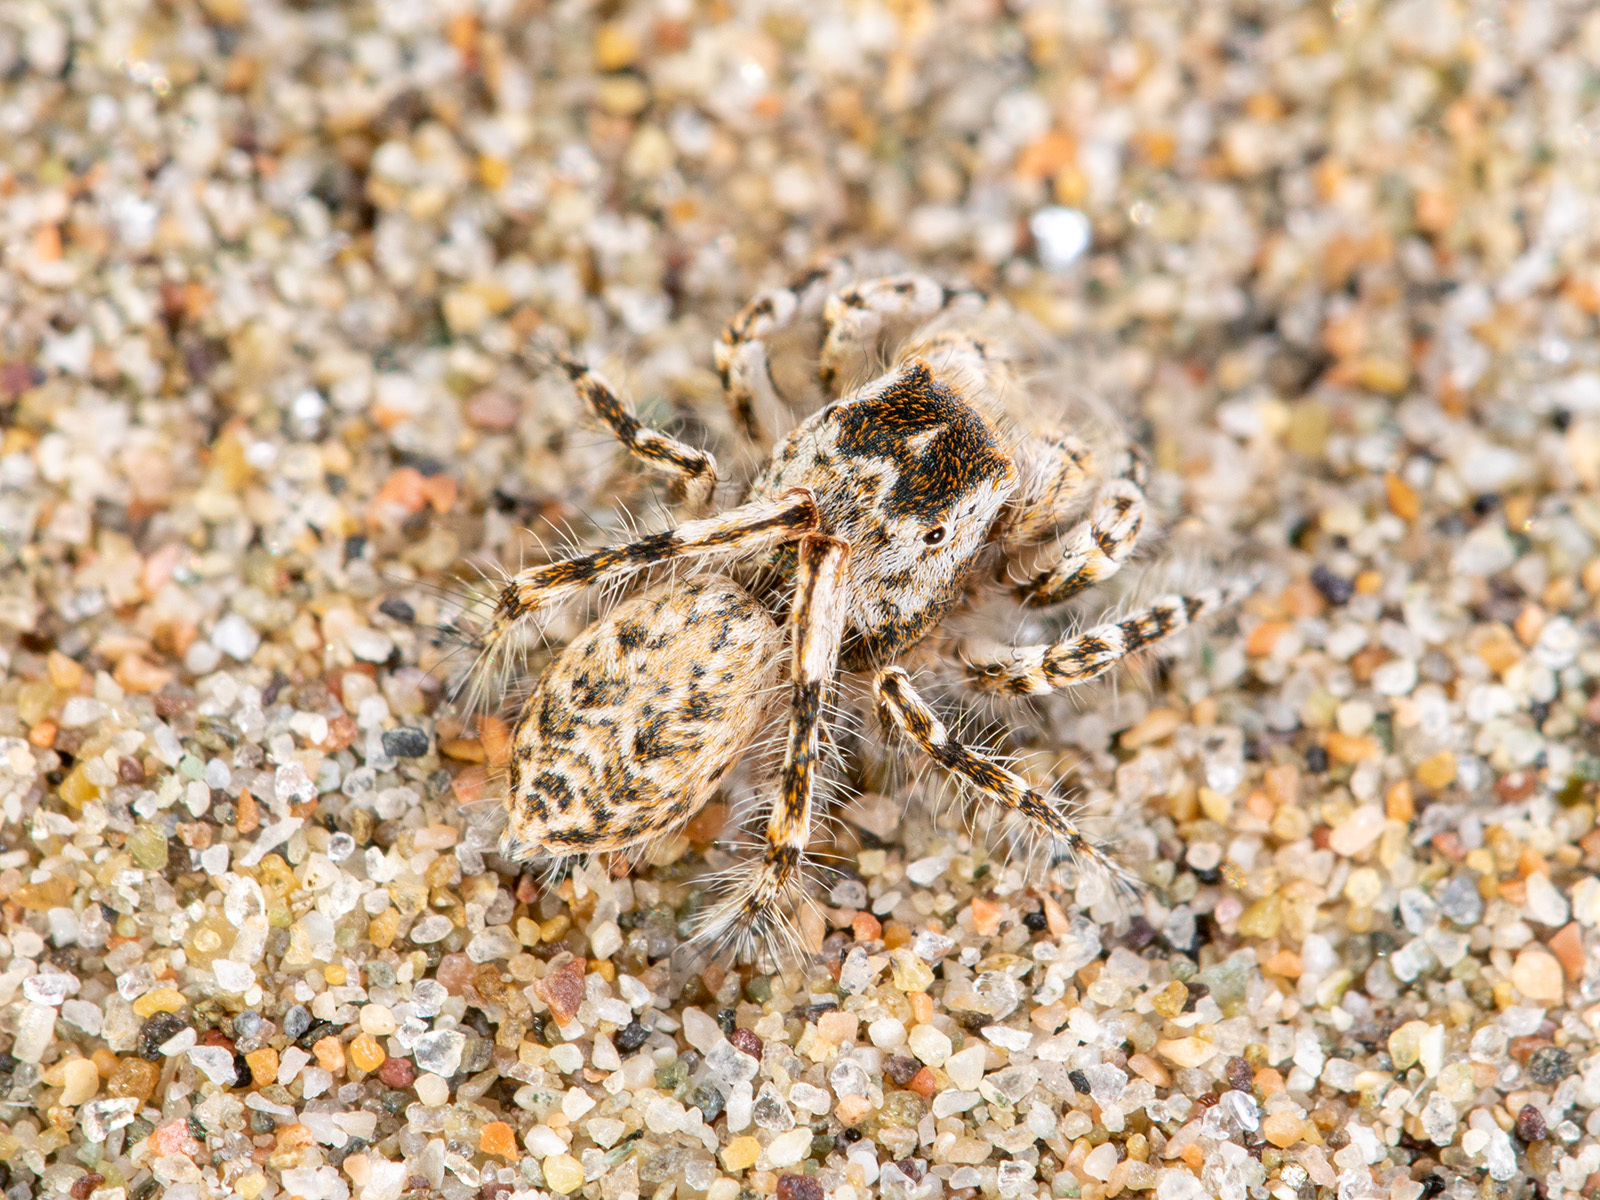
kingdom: Animalia
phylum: Arthropoda
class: Arachnida
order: Araneae
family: Salticidae
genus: Yllenus
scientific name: Yllenus turkestanicus
